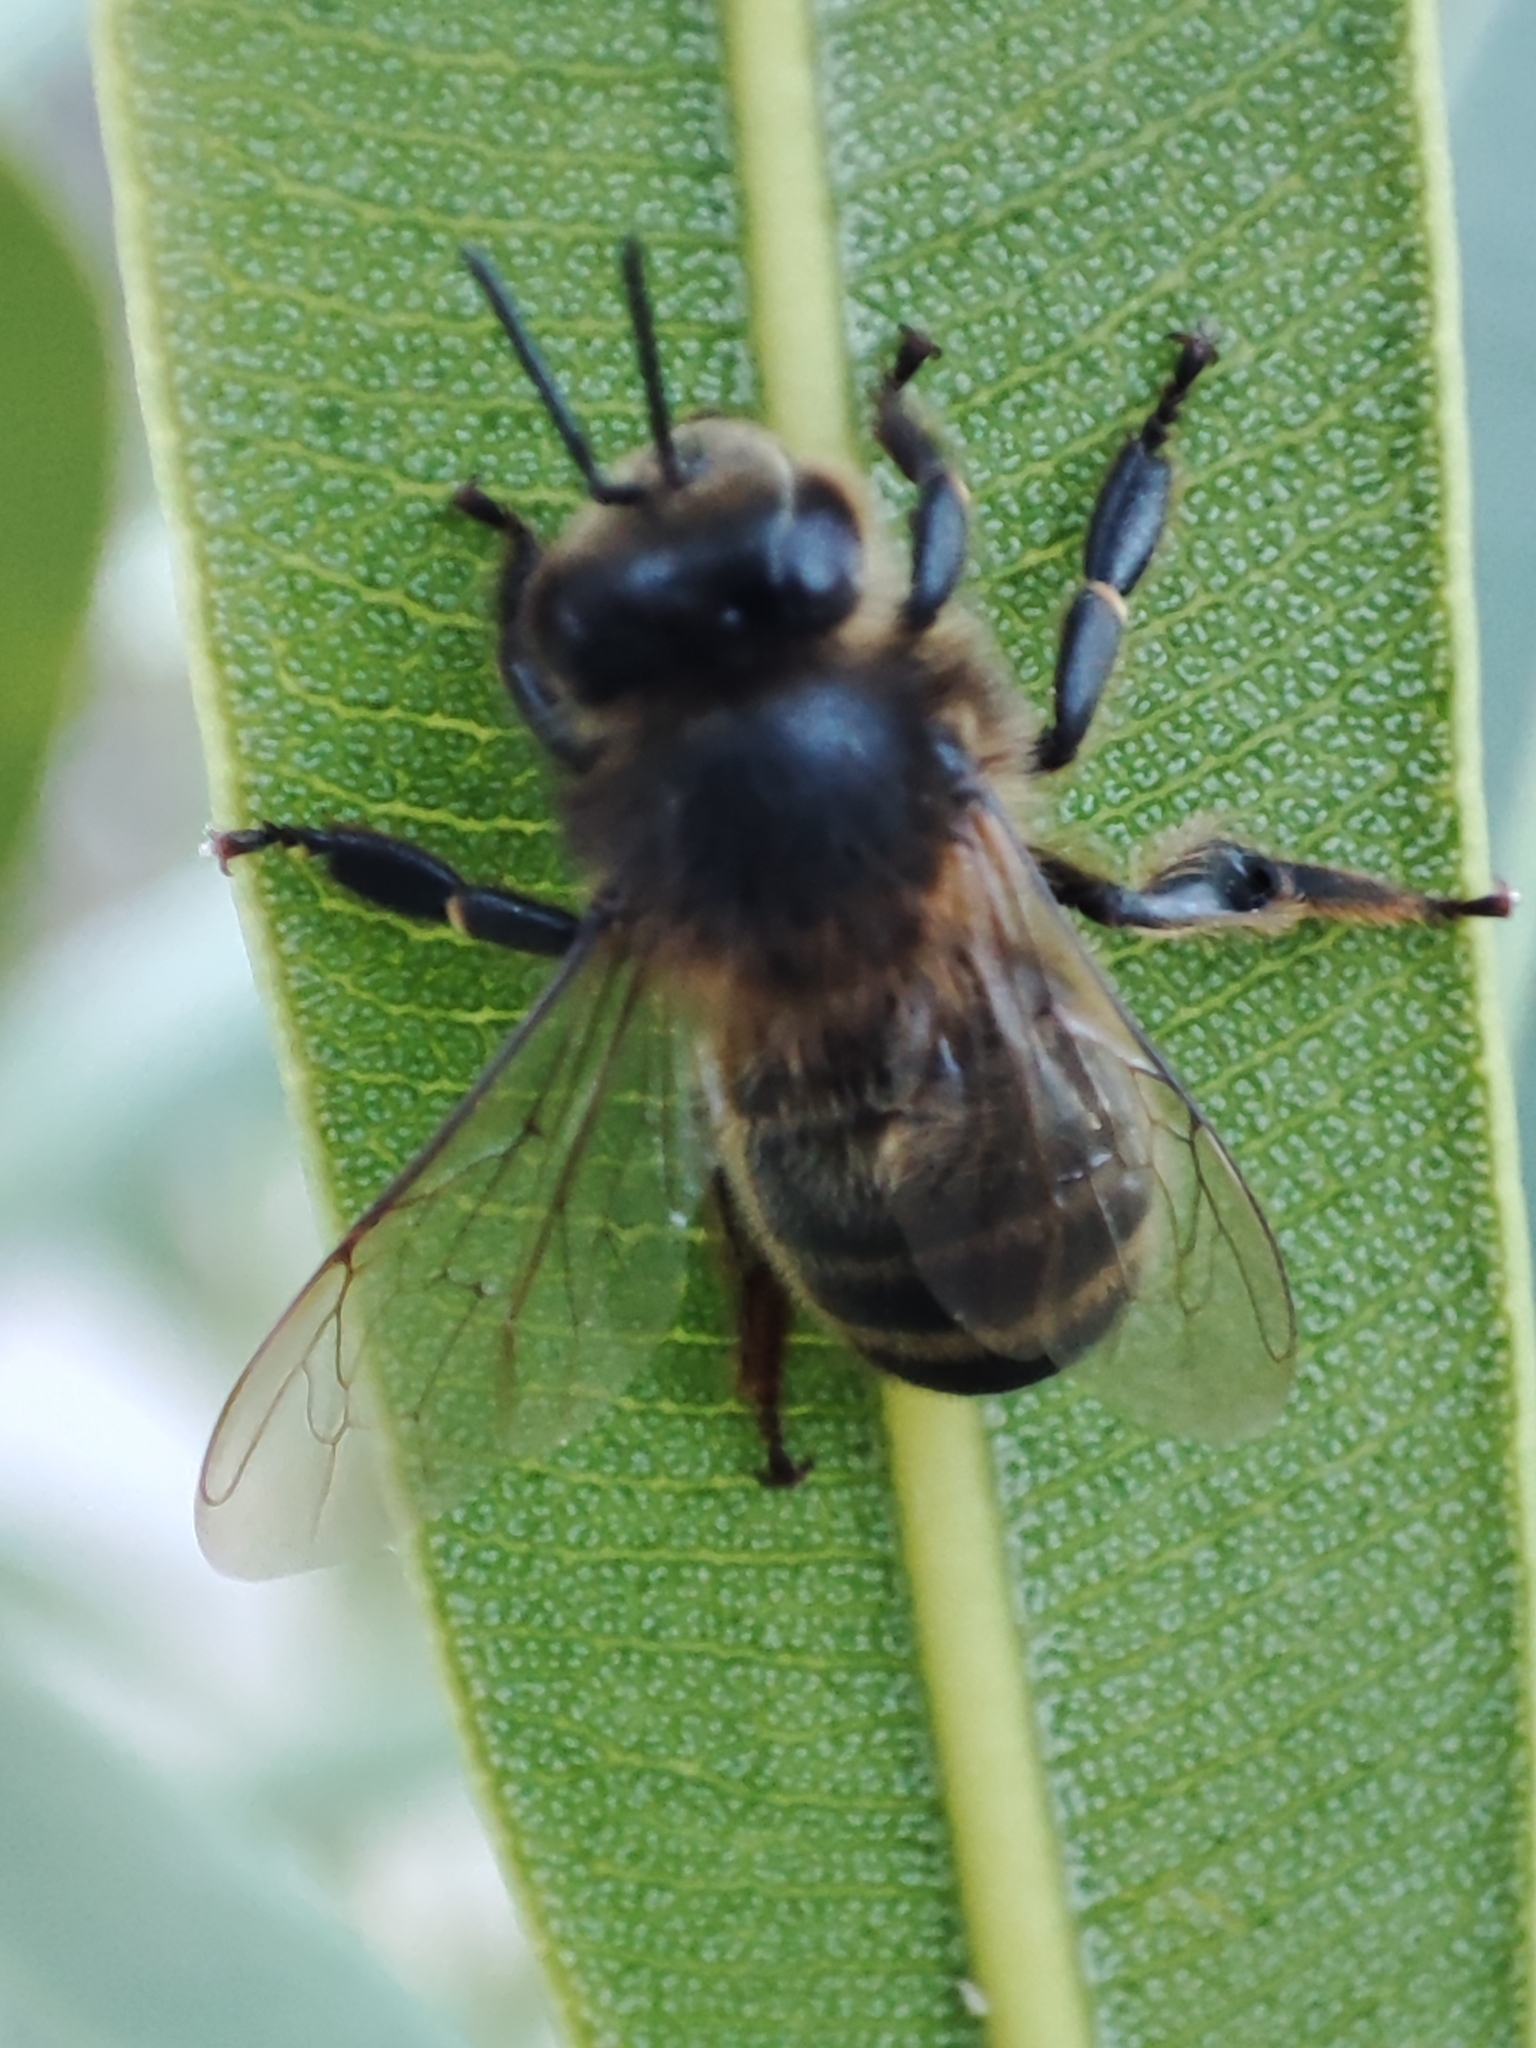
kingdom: Animalia
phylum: Arthropoda
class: Insecta
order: Hymenoptera
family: Apidae
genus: Apis
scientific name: Apis mellifera
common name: Honey bee
